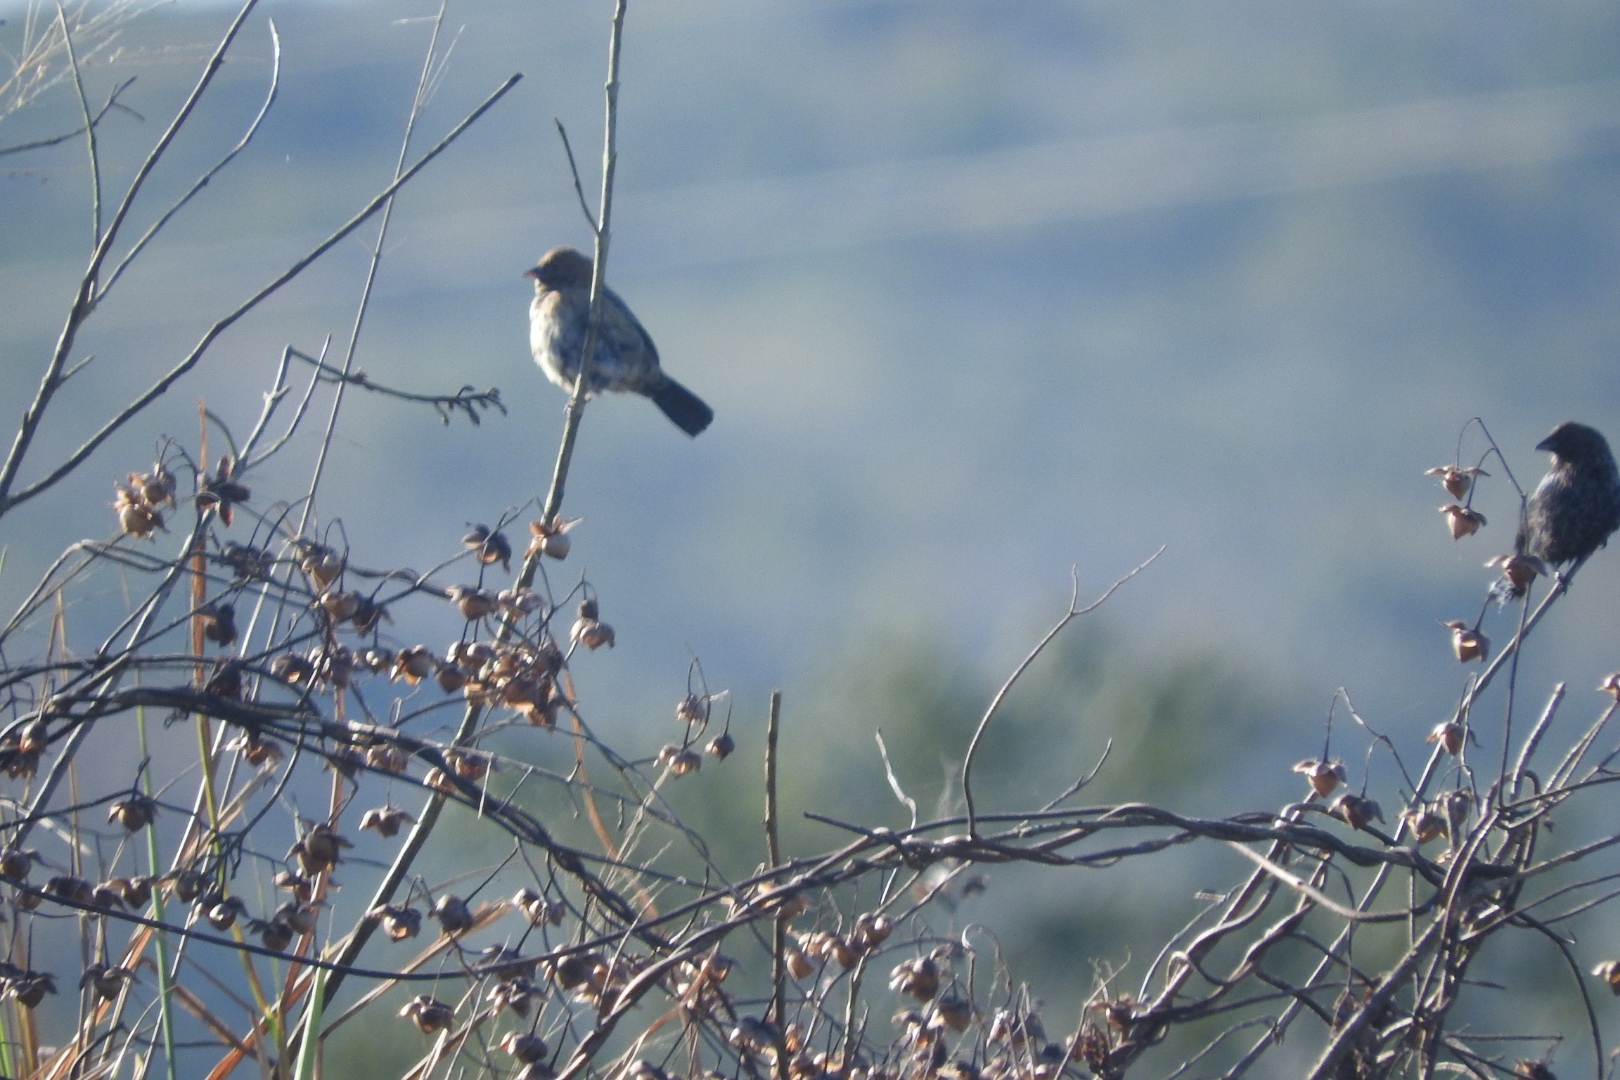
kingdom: Animalia
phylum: Chordata
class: Aves
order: Passeriformes
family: Thraupidae
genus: Volatinia
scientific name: Volatinia jacarina
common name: Blue-black grassquit
